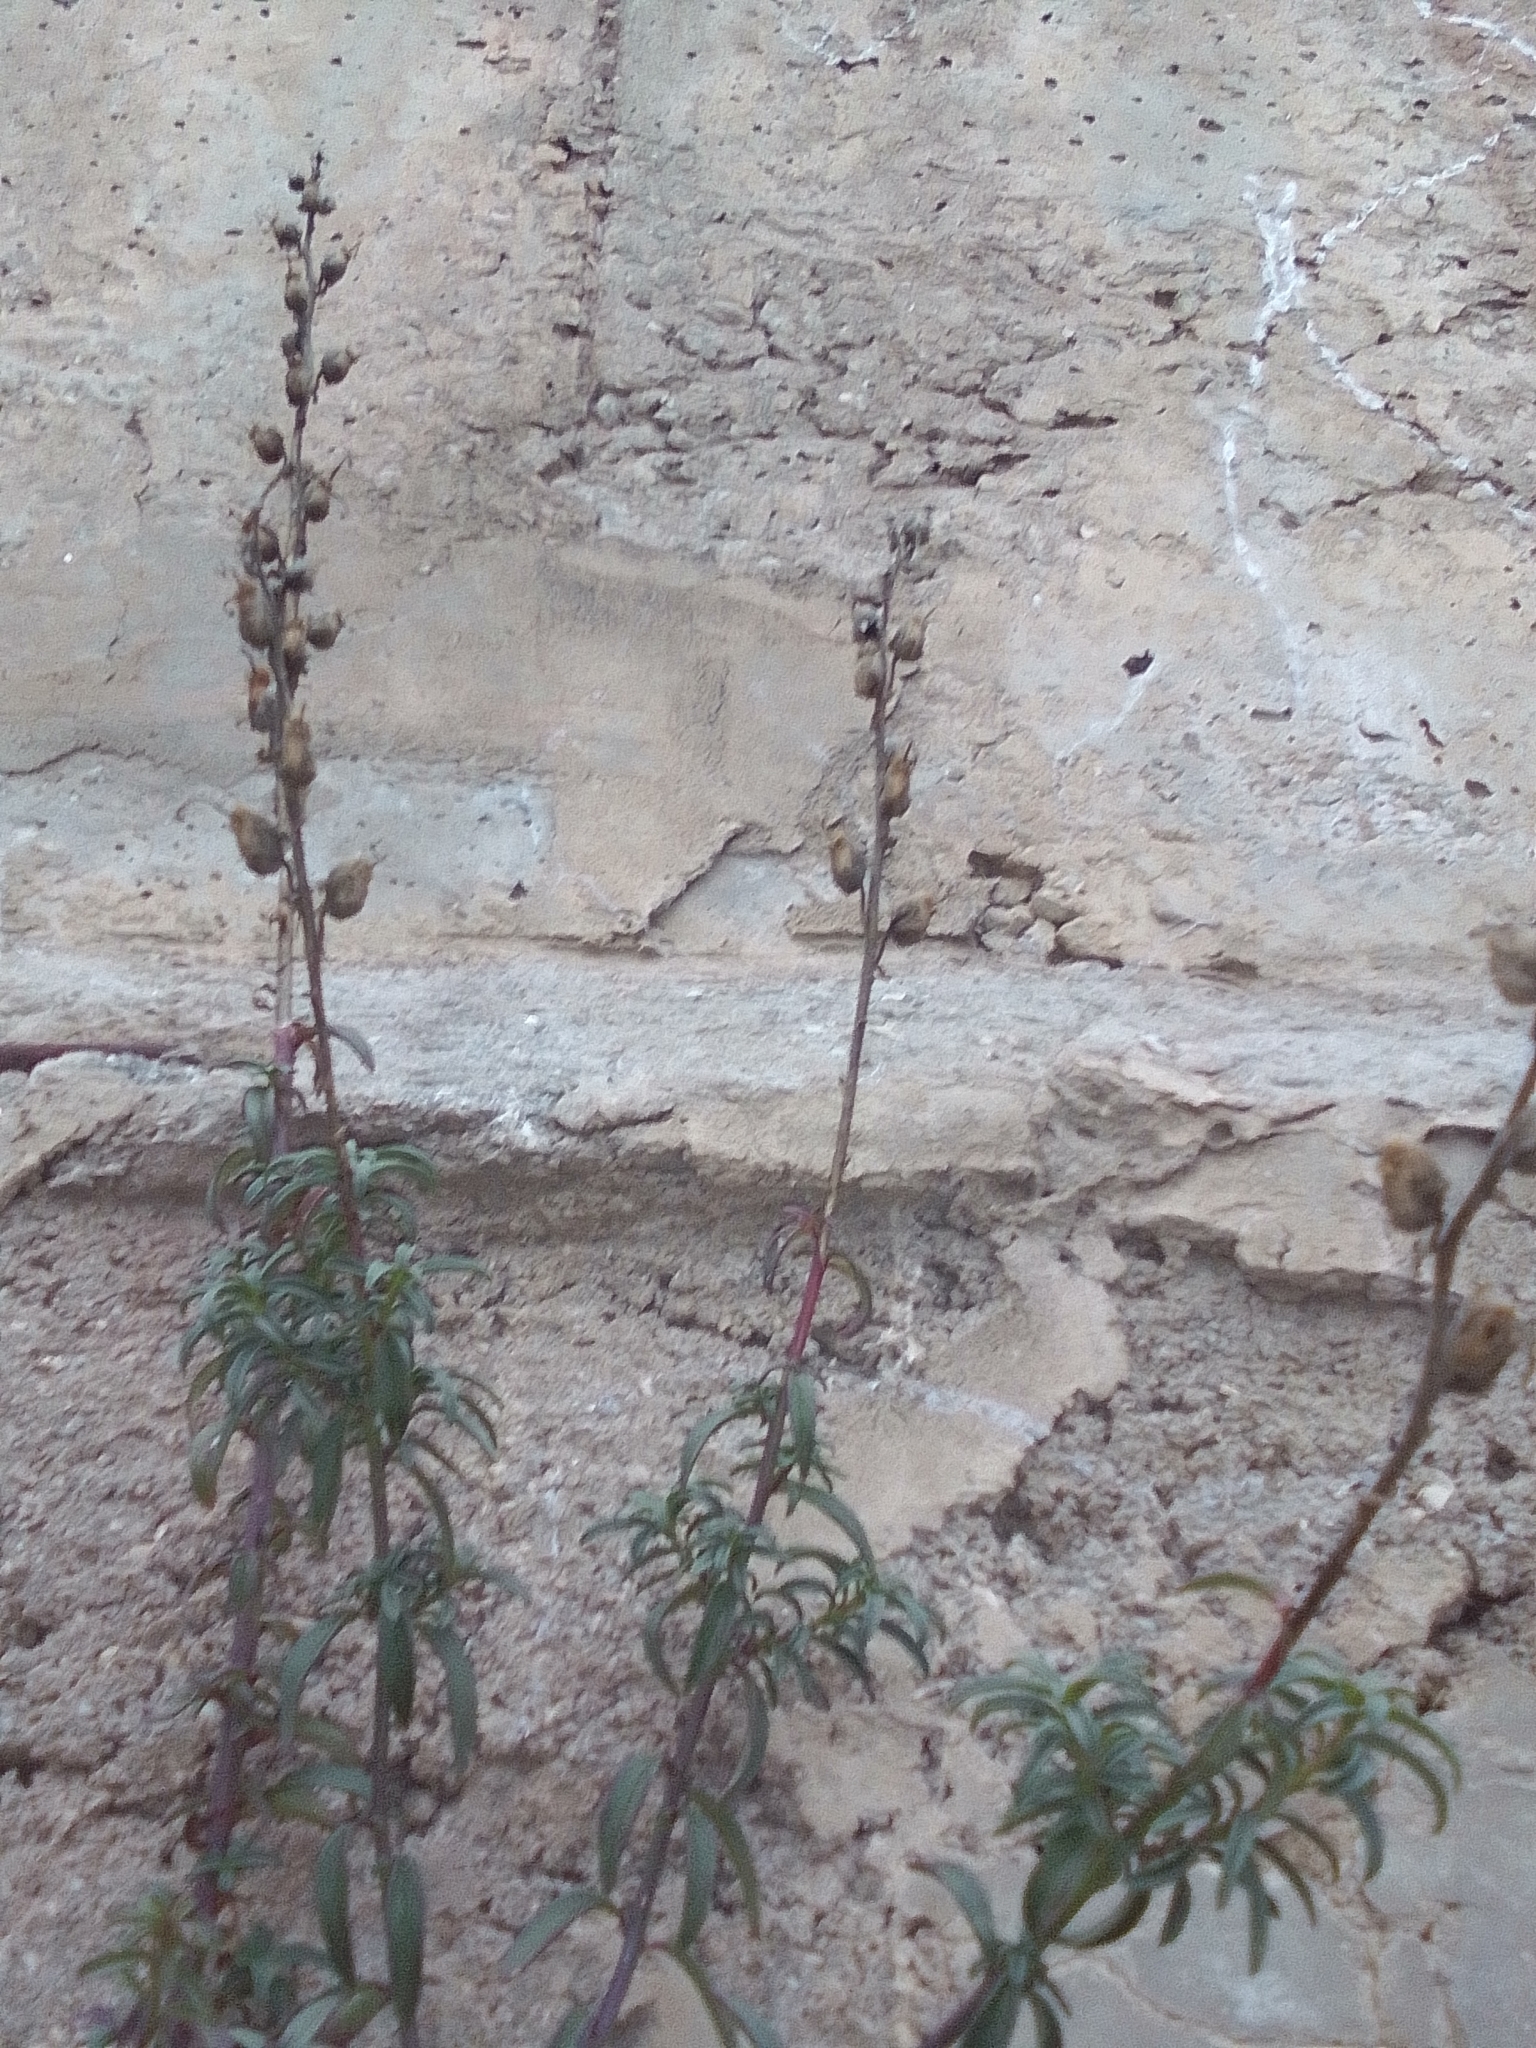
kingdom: Plantae
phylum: Tracheophyta
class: Magnoliopsida
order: Lamiales
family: Plantaginaceae
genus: Antirrhinum
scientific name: Antirrhinum majus
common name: Snapdragon
